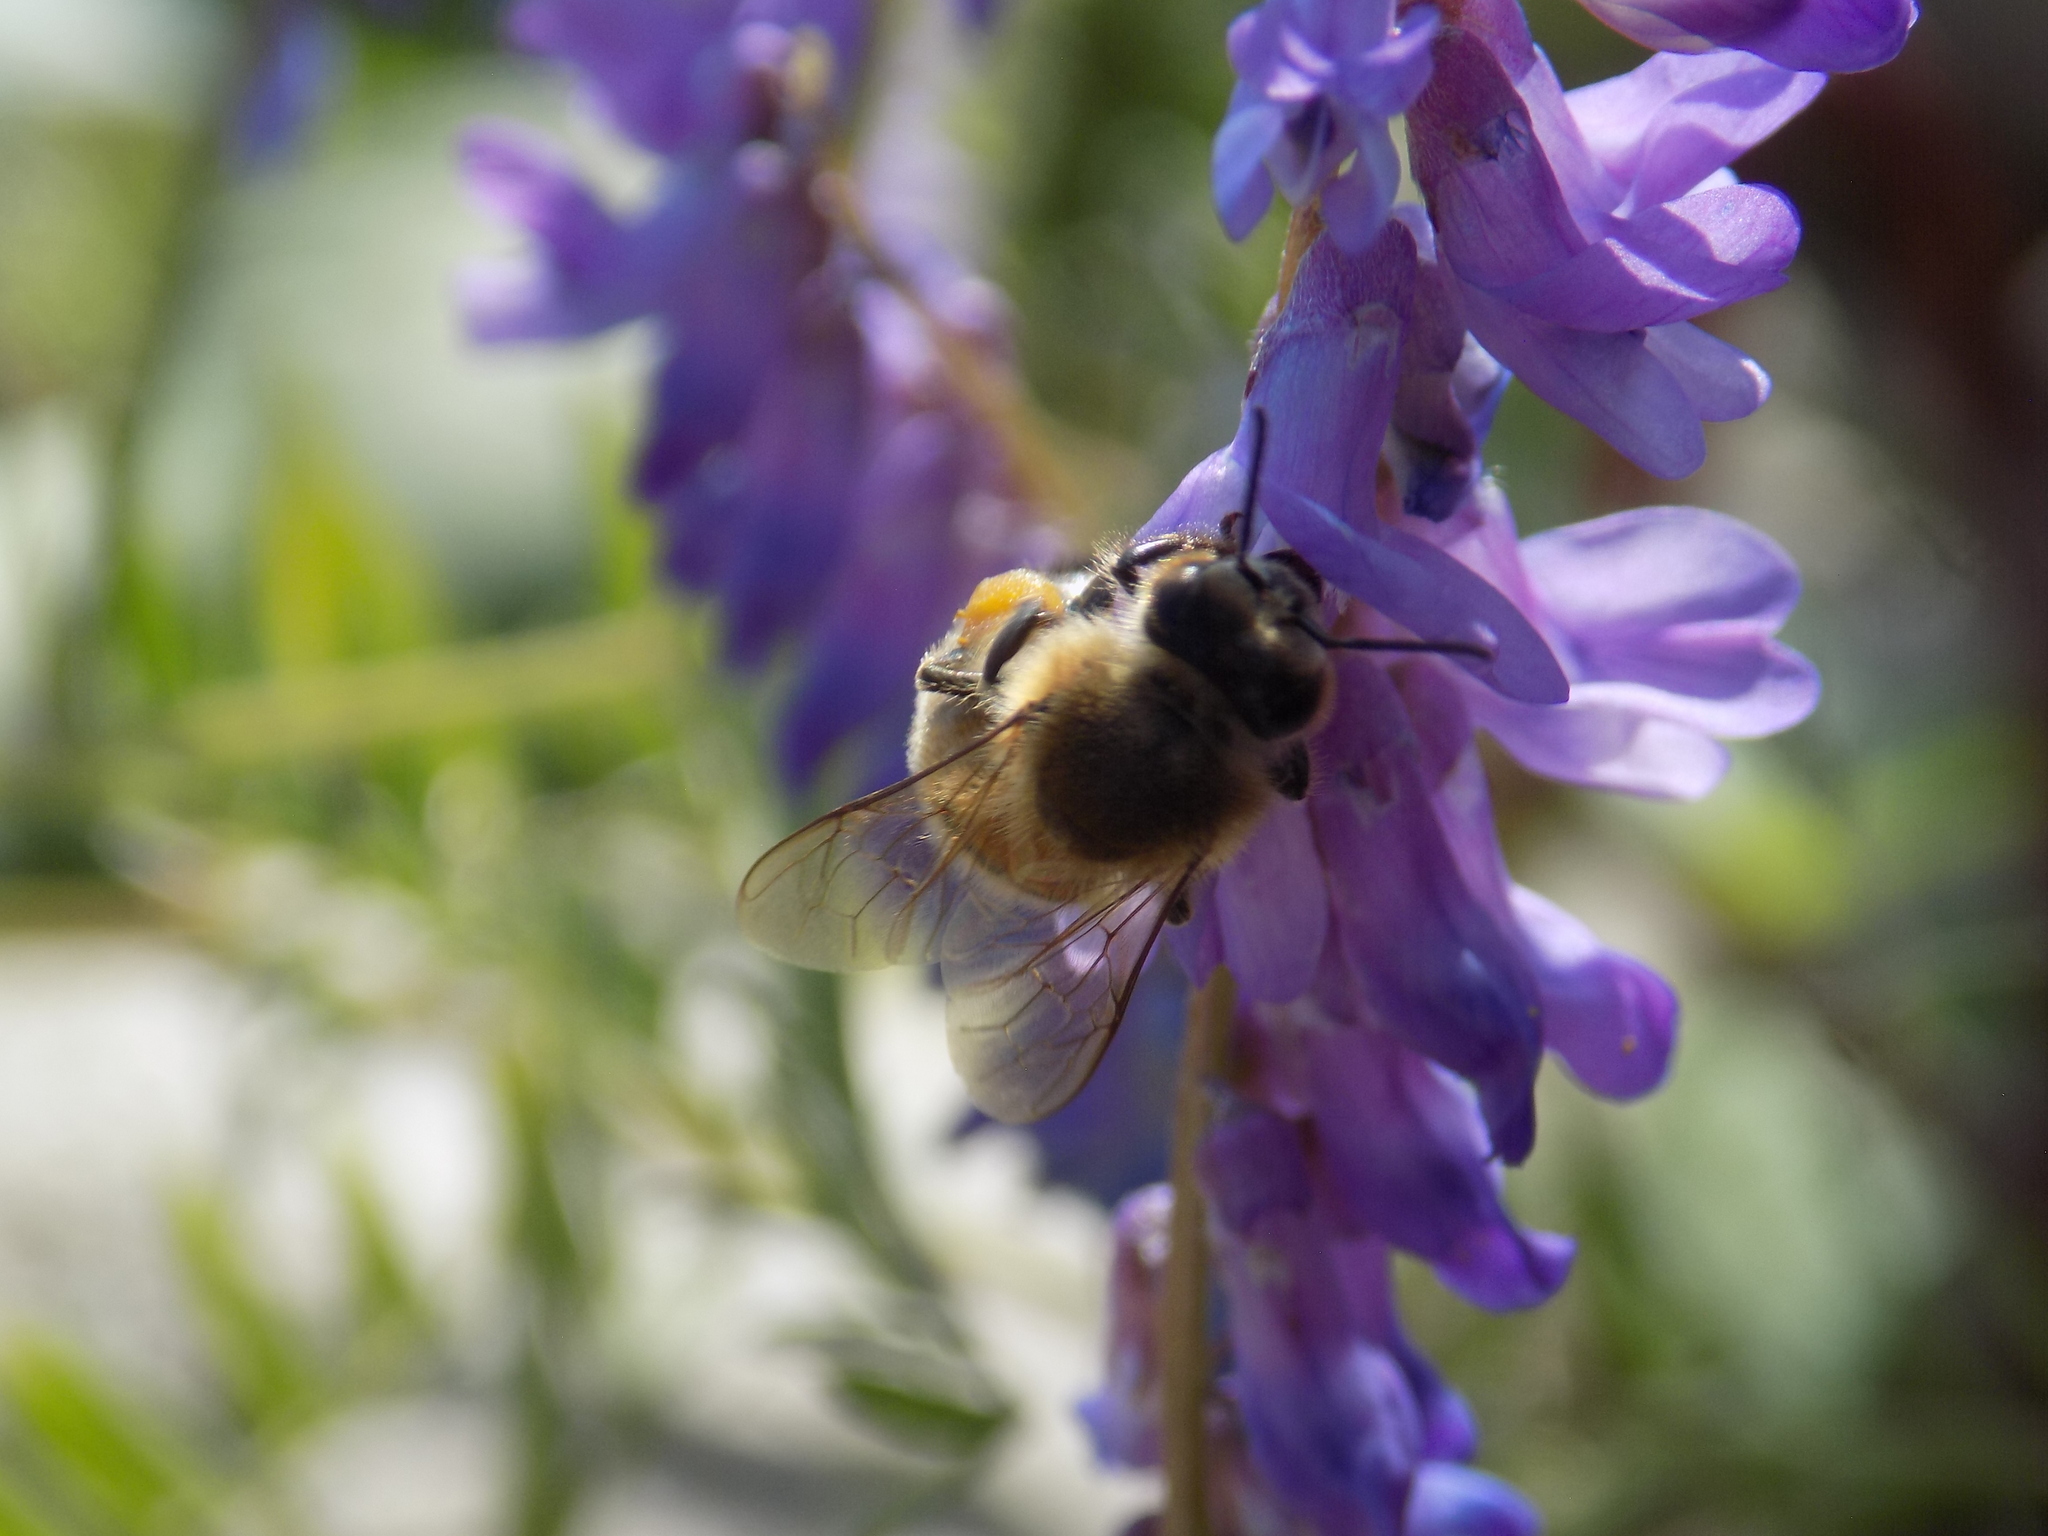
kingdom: Animalia
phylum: Arthropoda
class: Insecta
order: Hymenoptera
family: Apidae
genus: Apis
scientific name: Apis mellifera
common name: Honey bee
